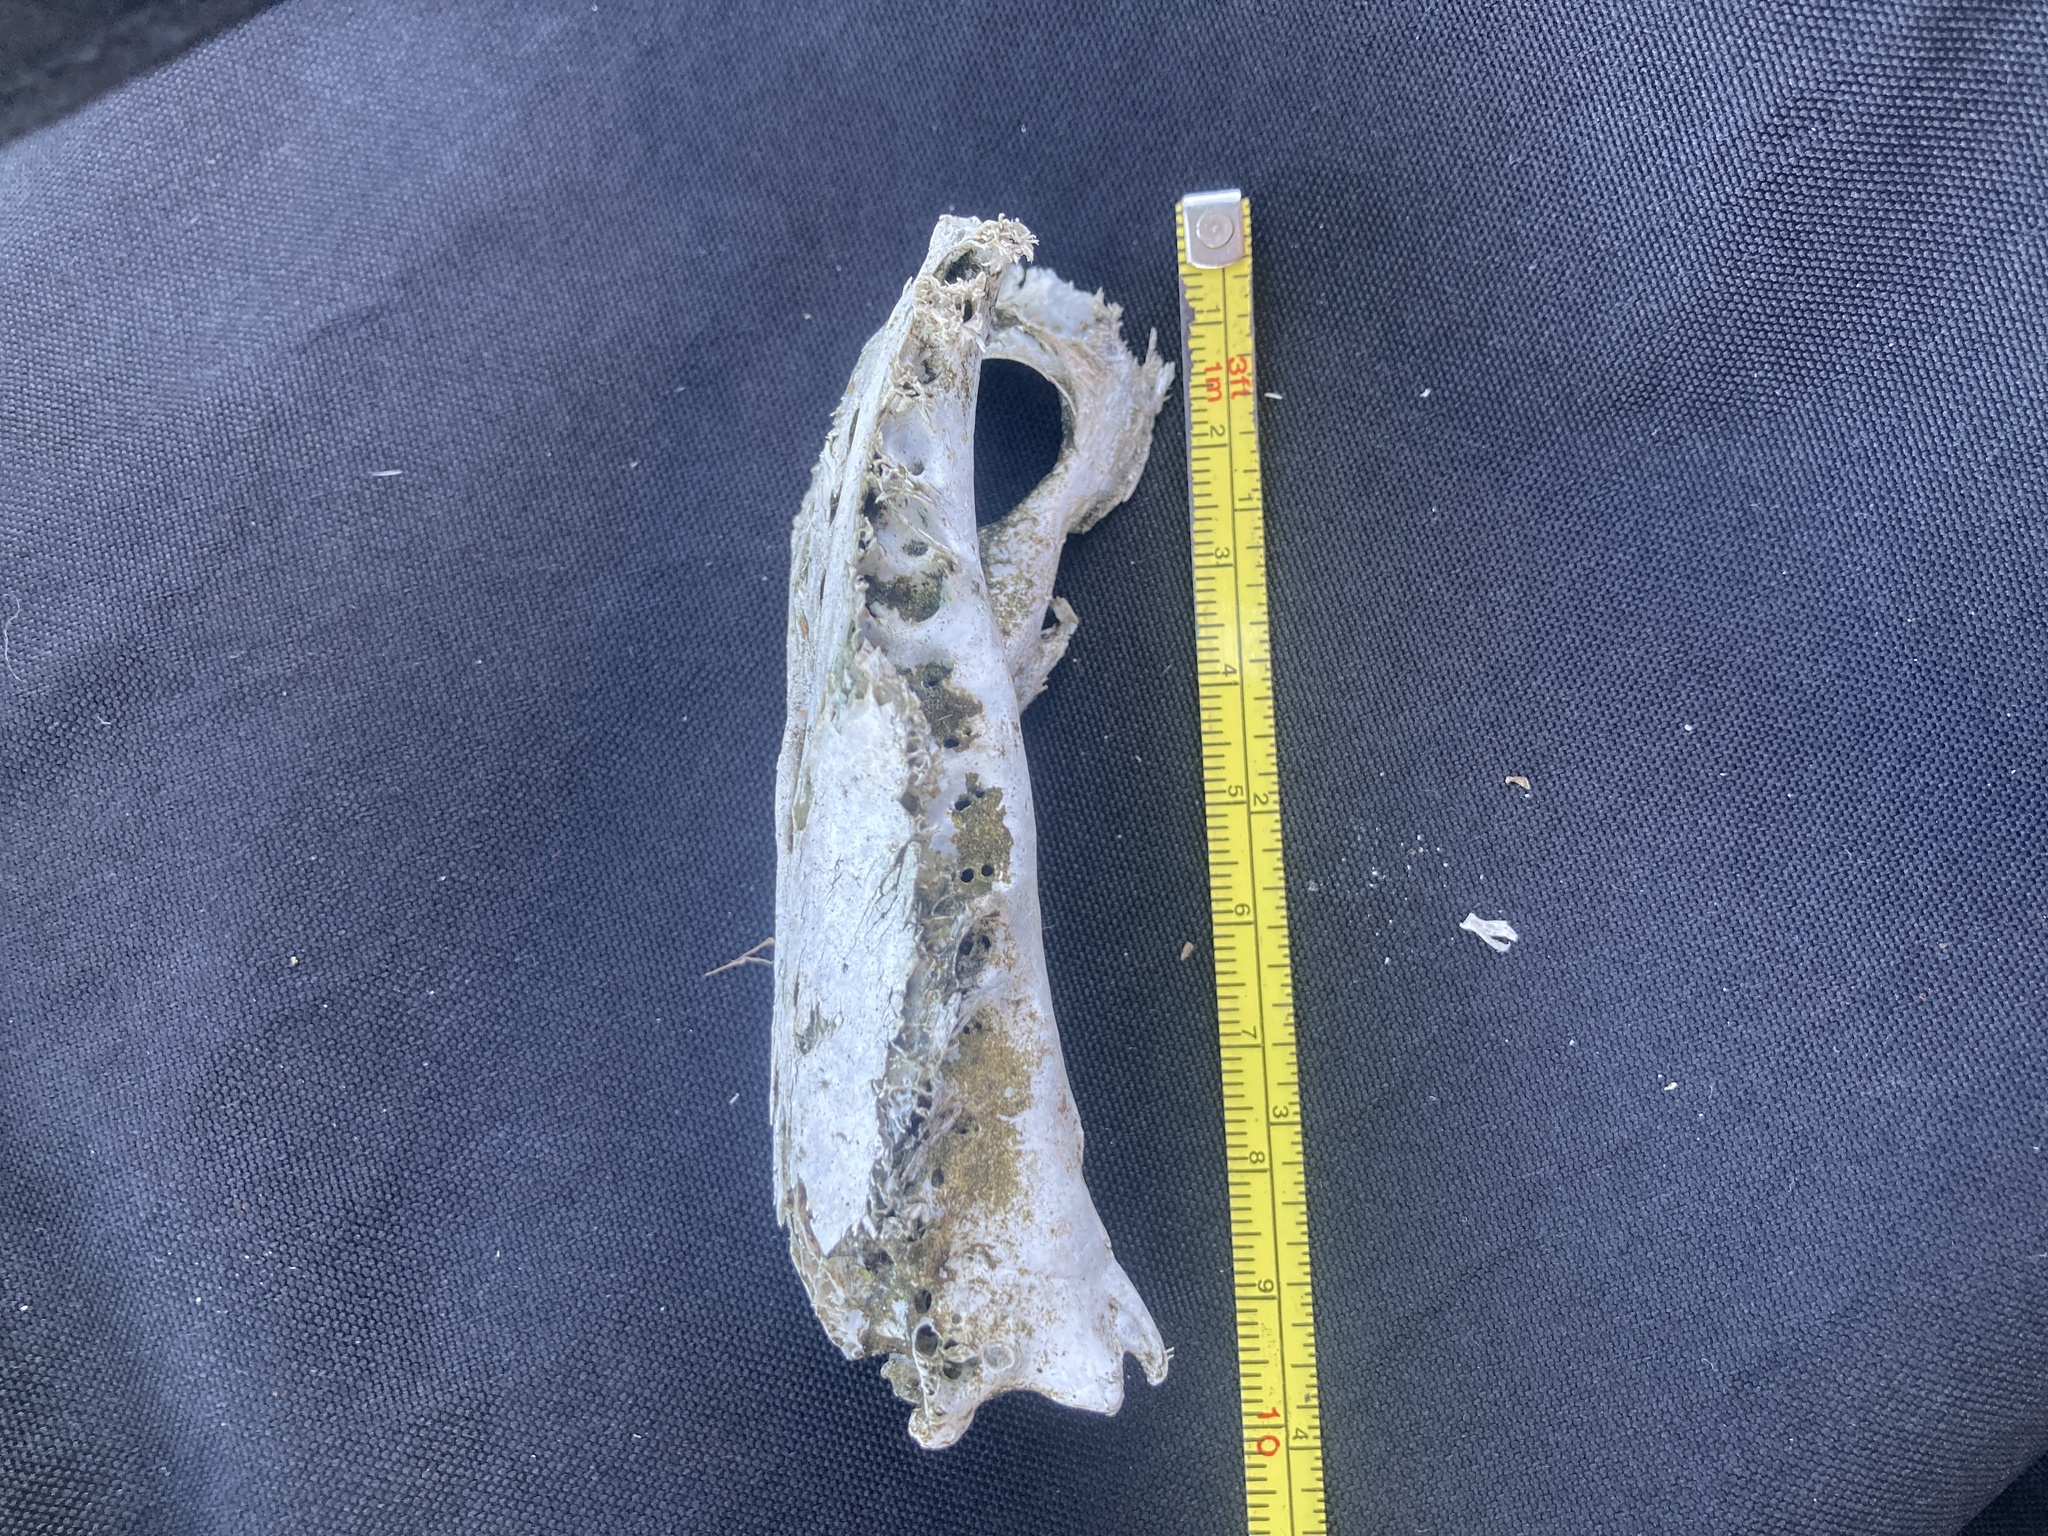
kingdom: Animalia
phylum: Chordata
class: Aves
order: Accipitriformes
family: Cathartidae
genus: Cathartes
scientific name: Cathartes aura
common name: Turkey vulture
